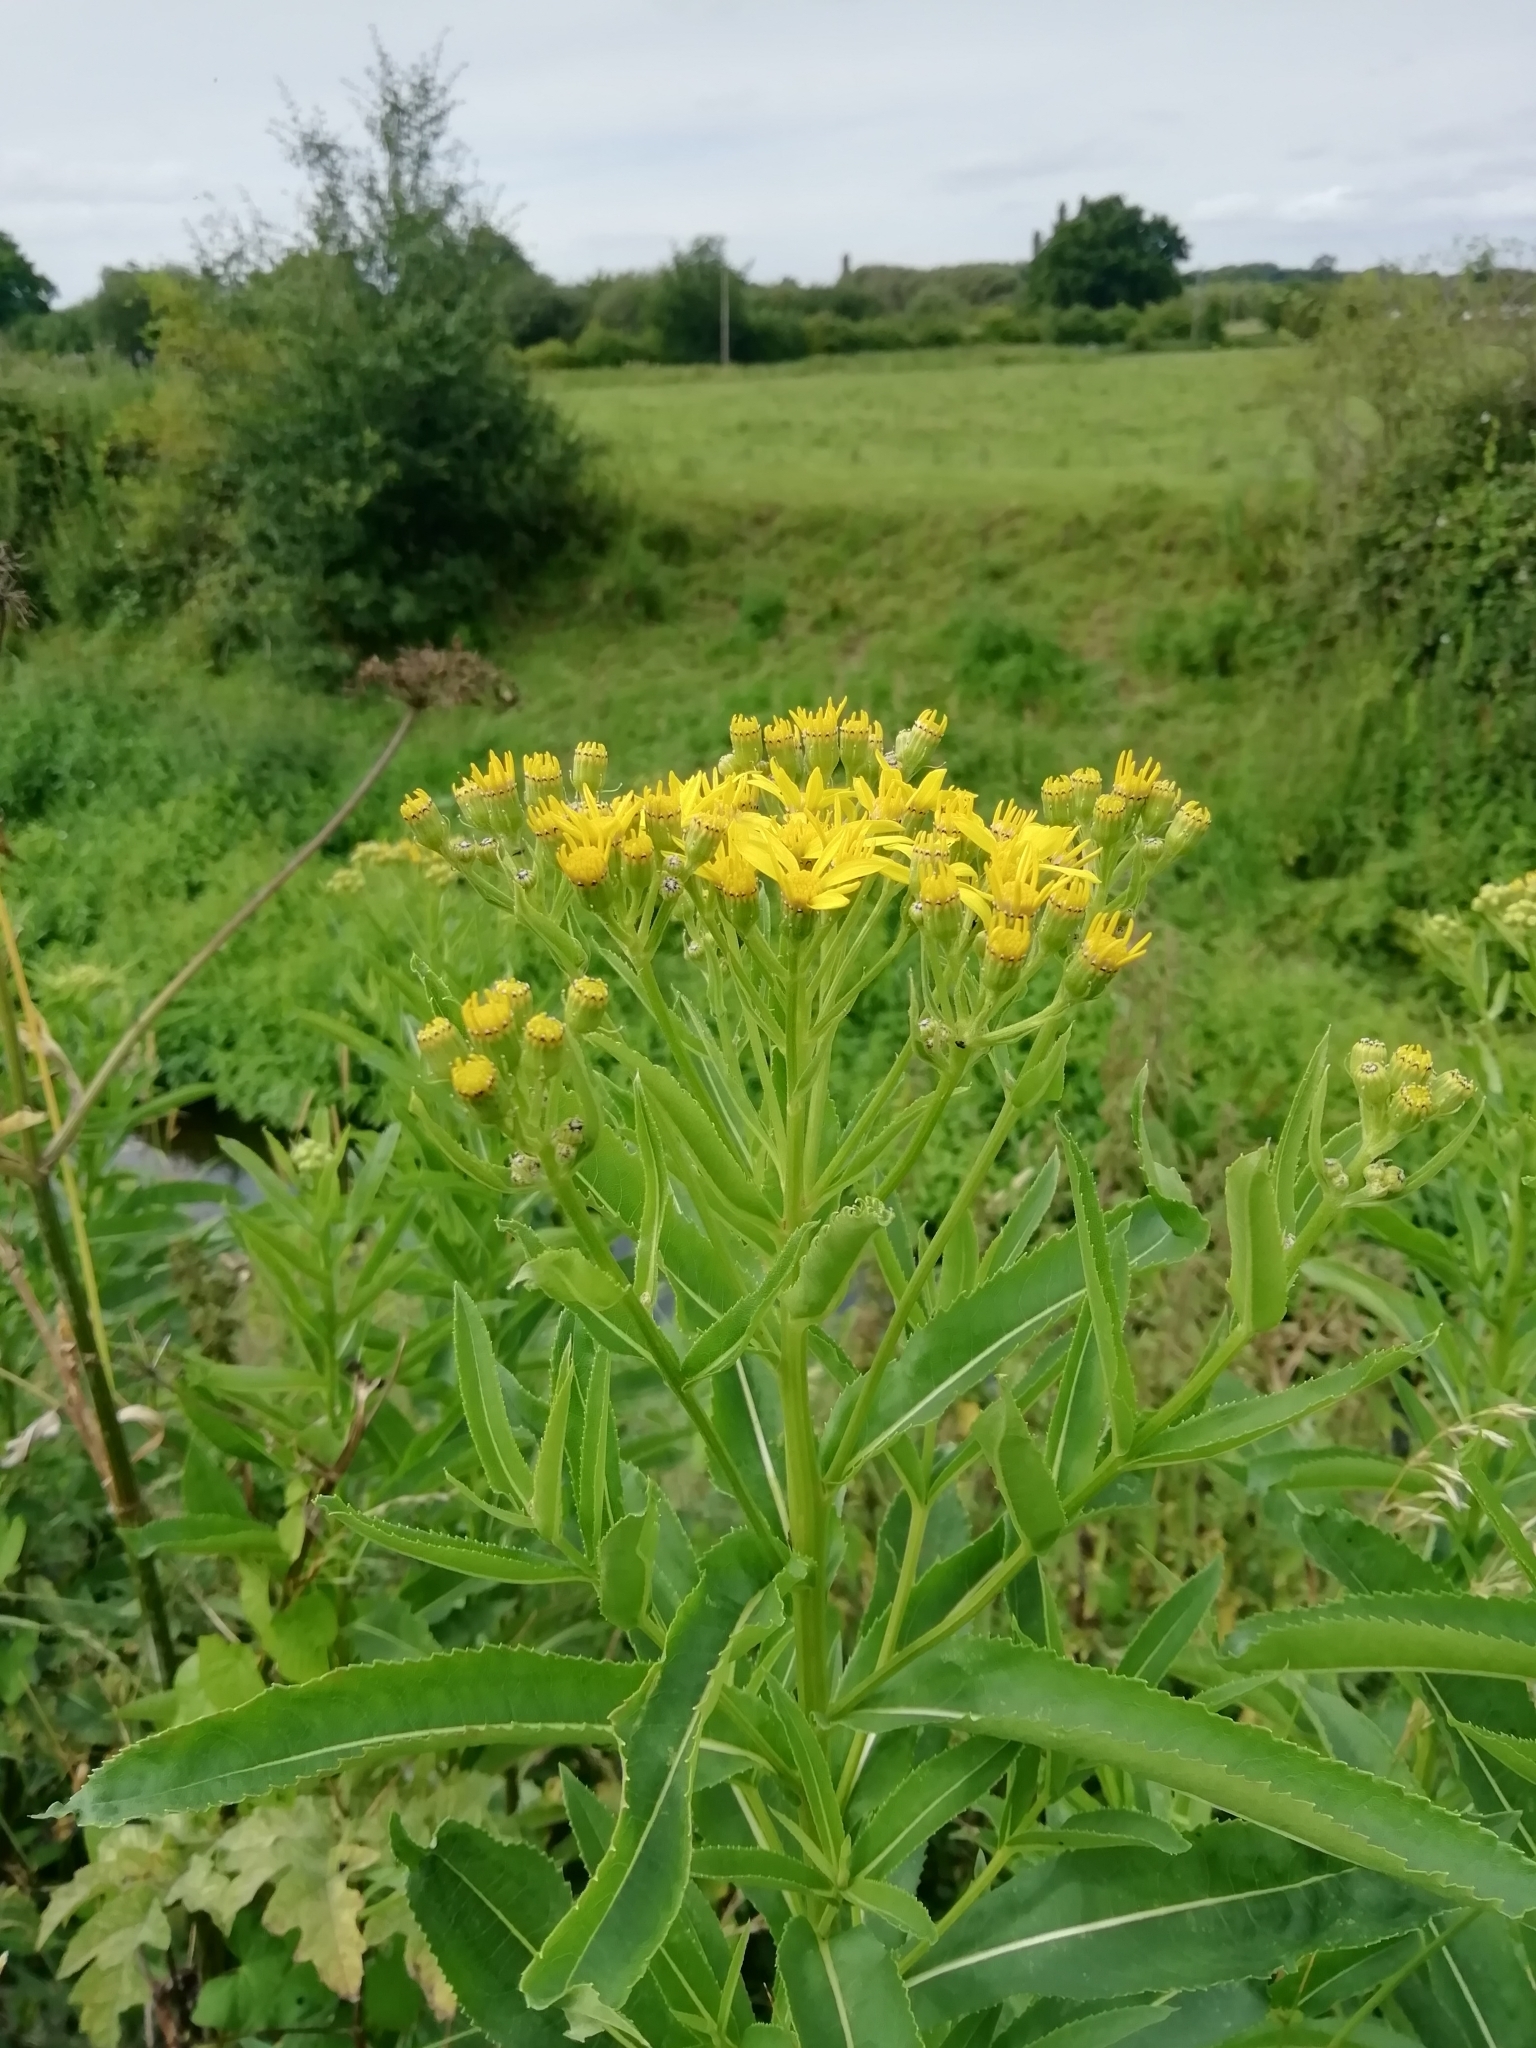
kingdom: Plantae
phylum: Tracheophyta
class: Magnoliopsida
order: Asterales
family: Asteraceae
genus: Senecio
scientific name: Senecio sarracenicus
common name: Broad-leaved ragwort
